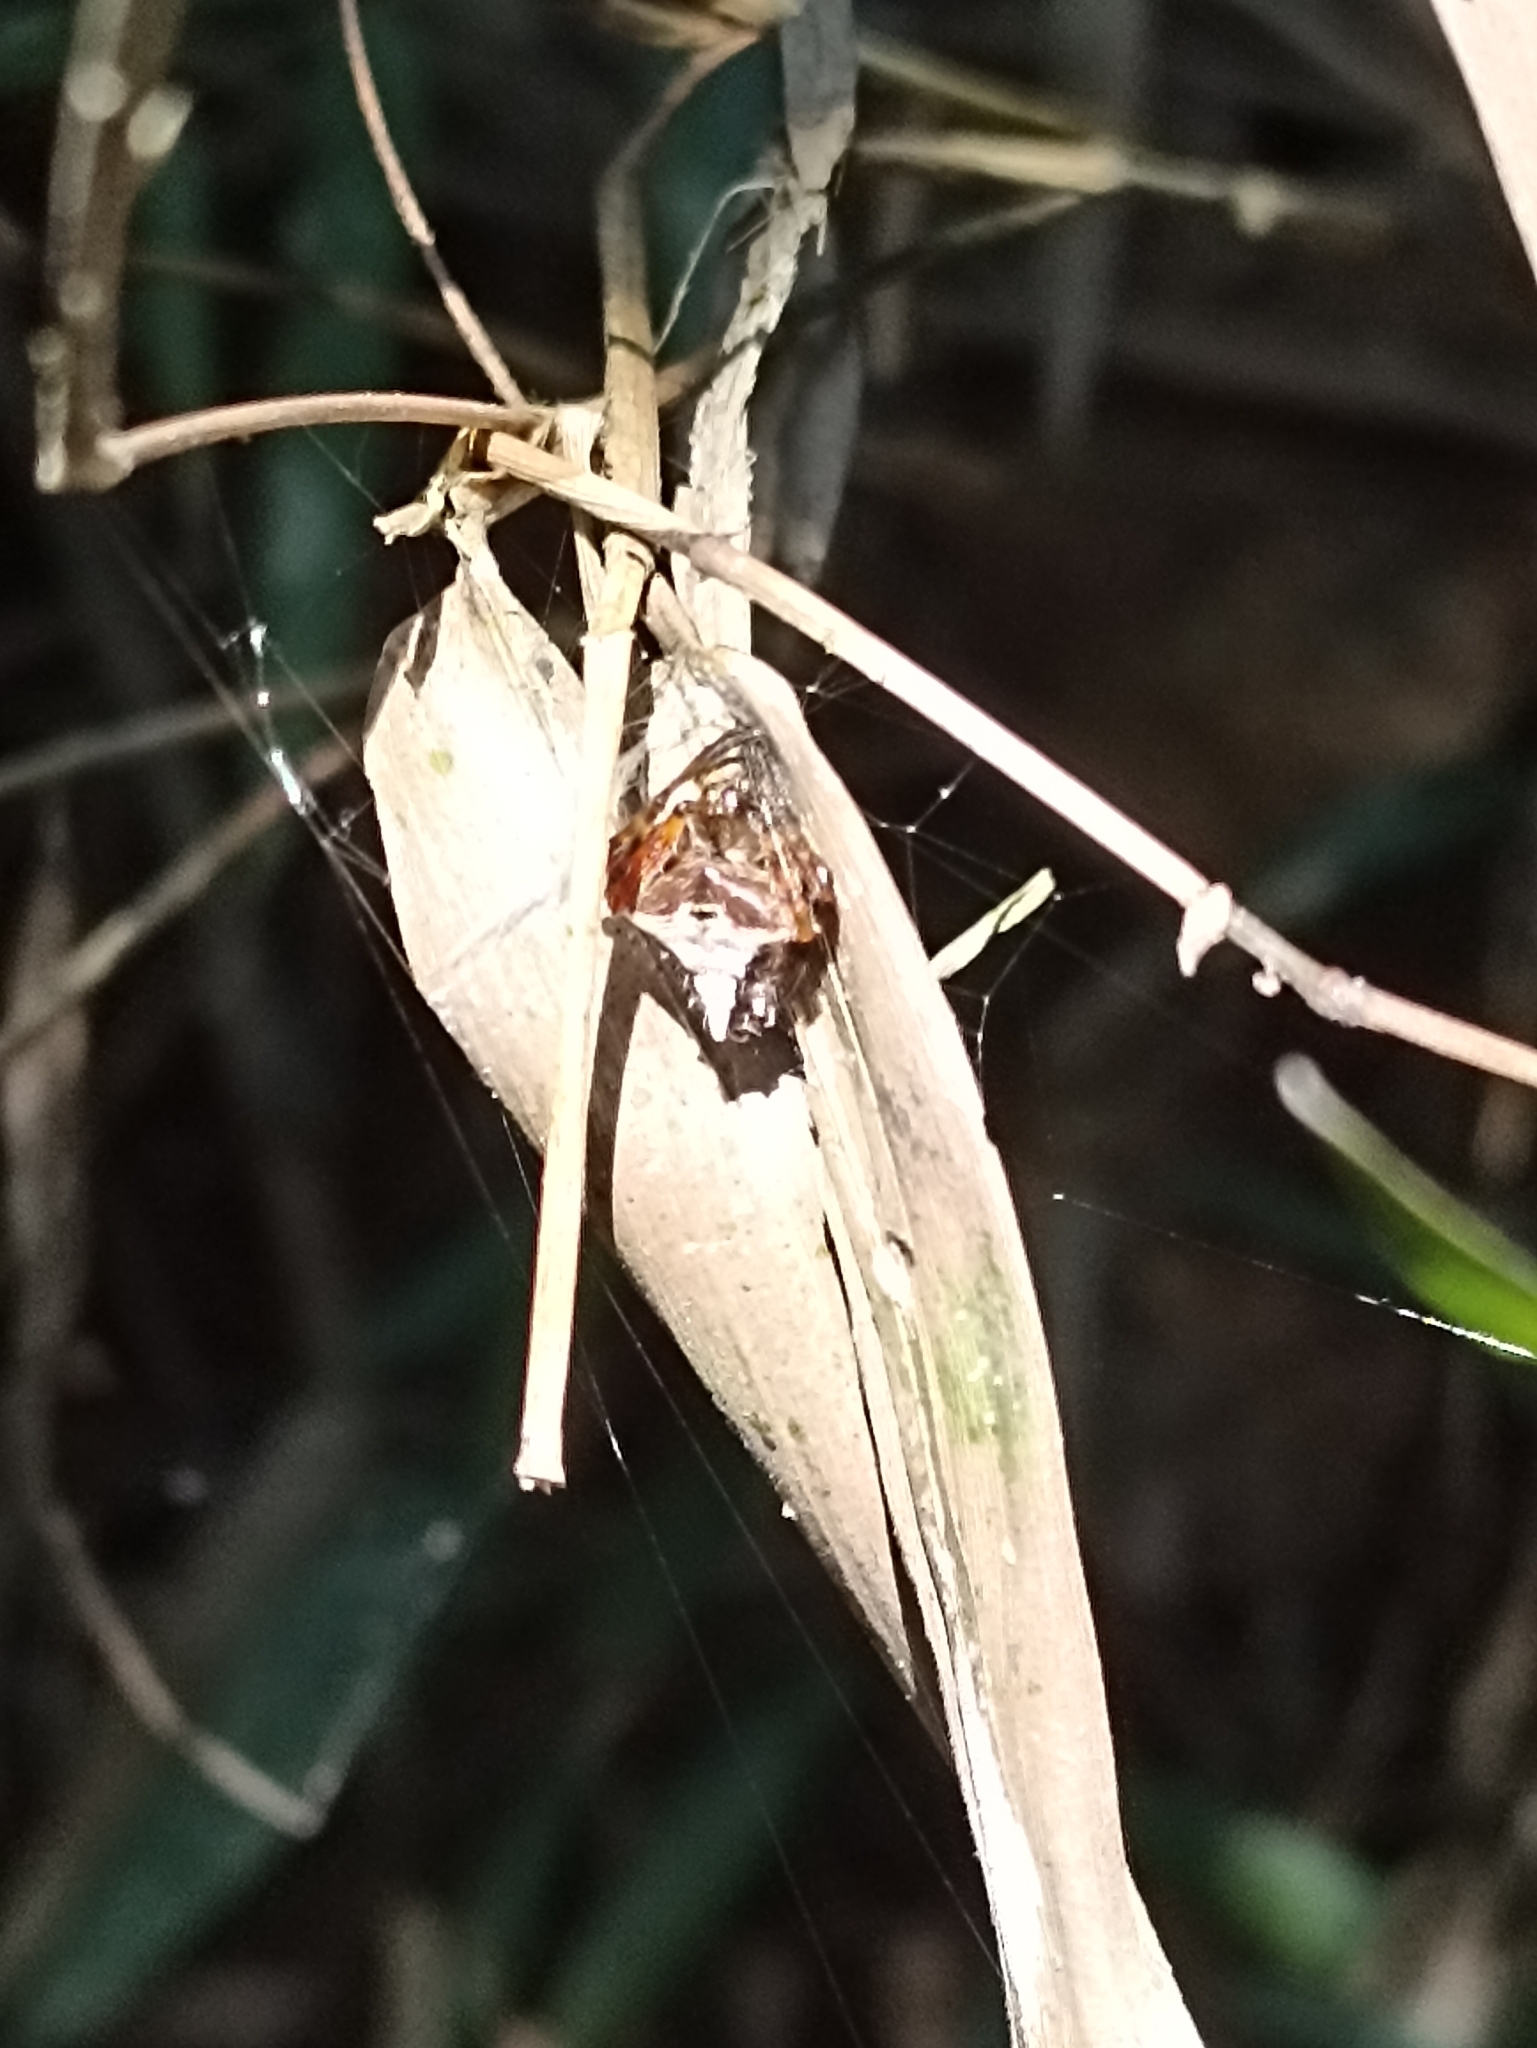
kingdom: Animalia
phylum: Arthropoda
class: Arachnida
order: Araneae
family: Araneidae
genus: Verrucosa
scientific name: Verrucosa scapofracta
